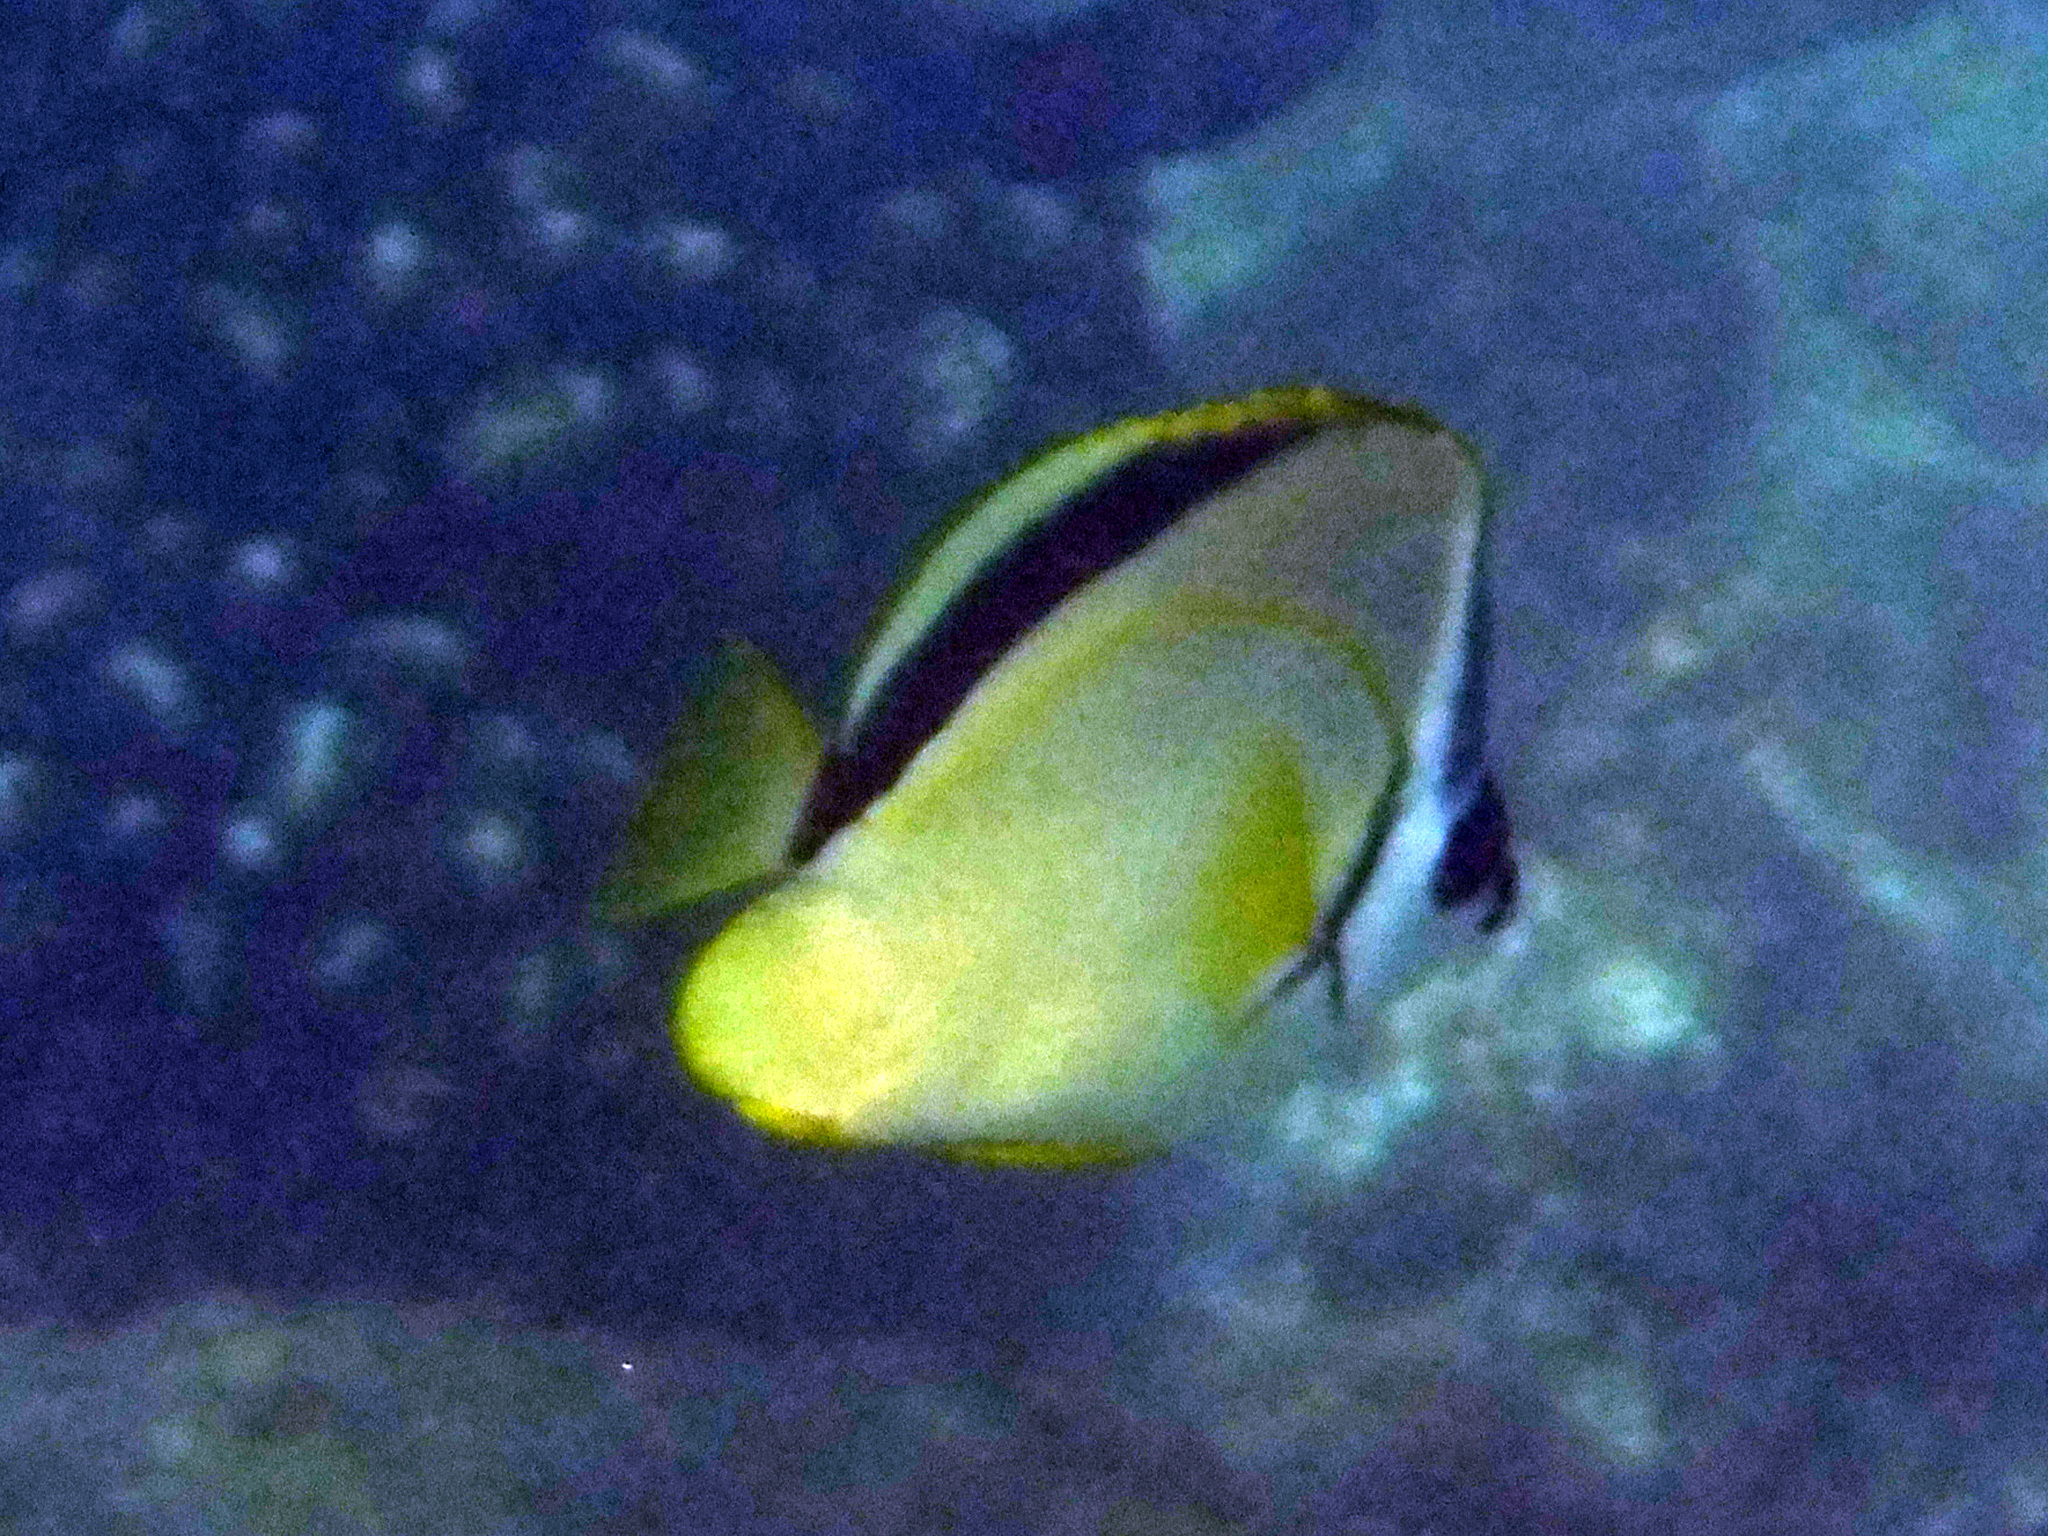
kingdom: Animalia
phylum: Chordata
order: Perciformes
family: Chaetodontidae
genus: Johnrandallia
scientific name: Johnrandallia nigrirostris
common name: Barberfish
